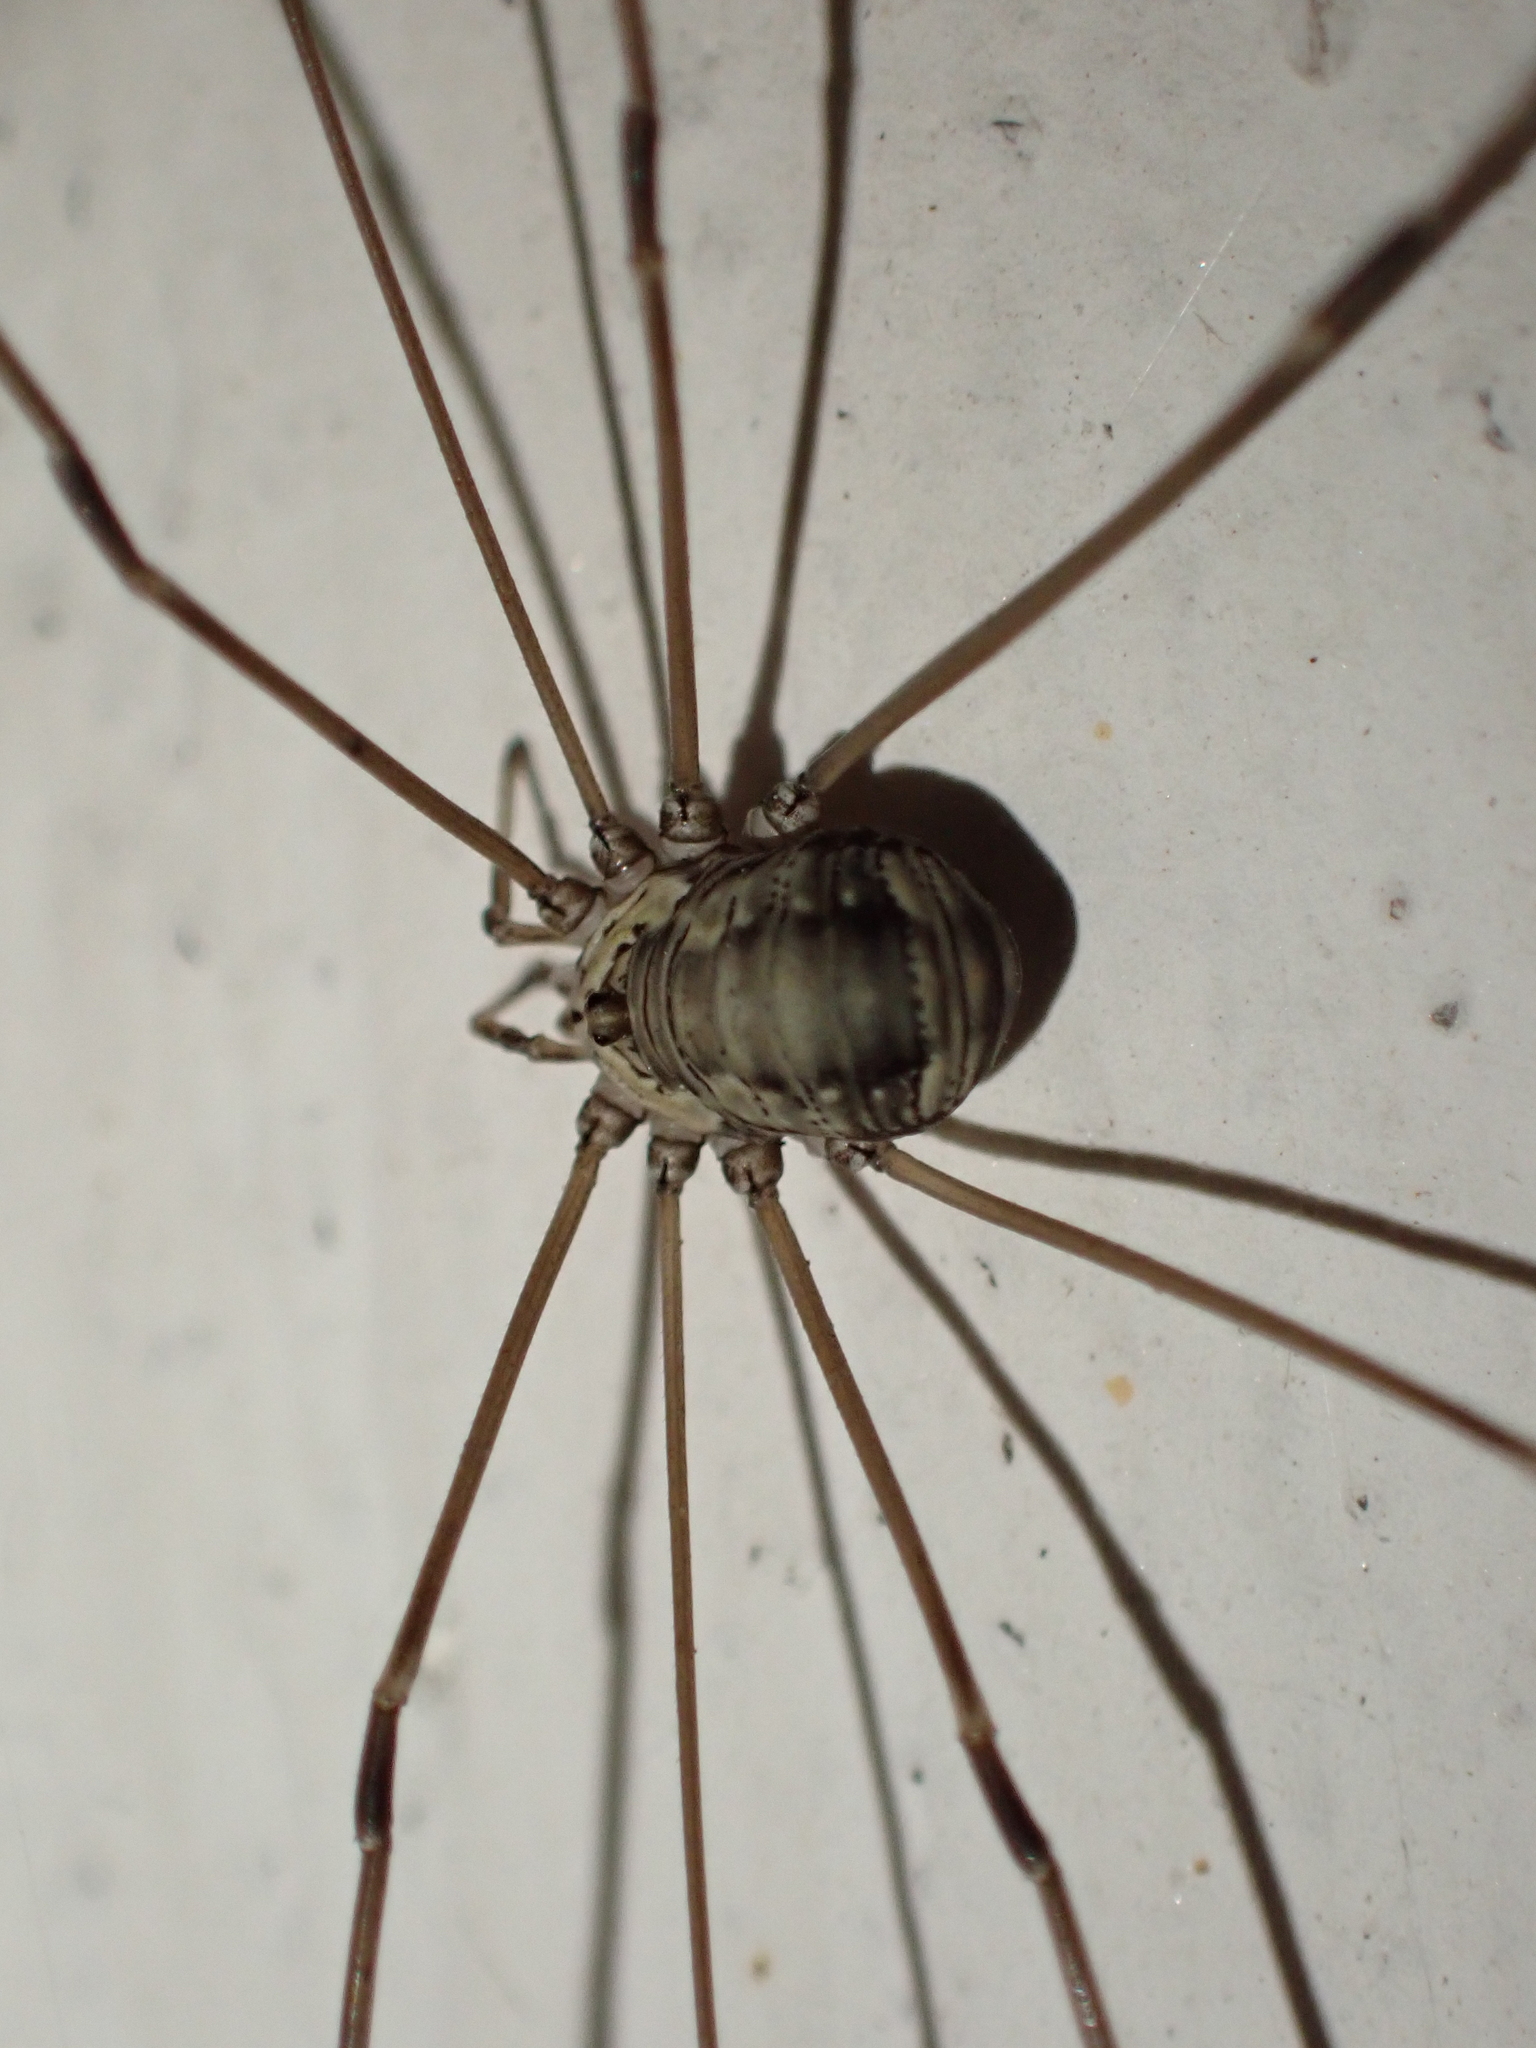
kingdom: Animalia
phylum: Arthropoda
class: Arachnida
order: Opiliones
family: Sclerosomatidae
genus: Leiobunum
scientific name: Leiobunum limbatum
